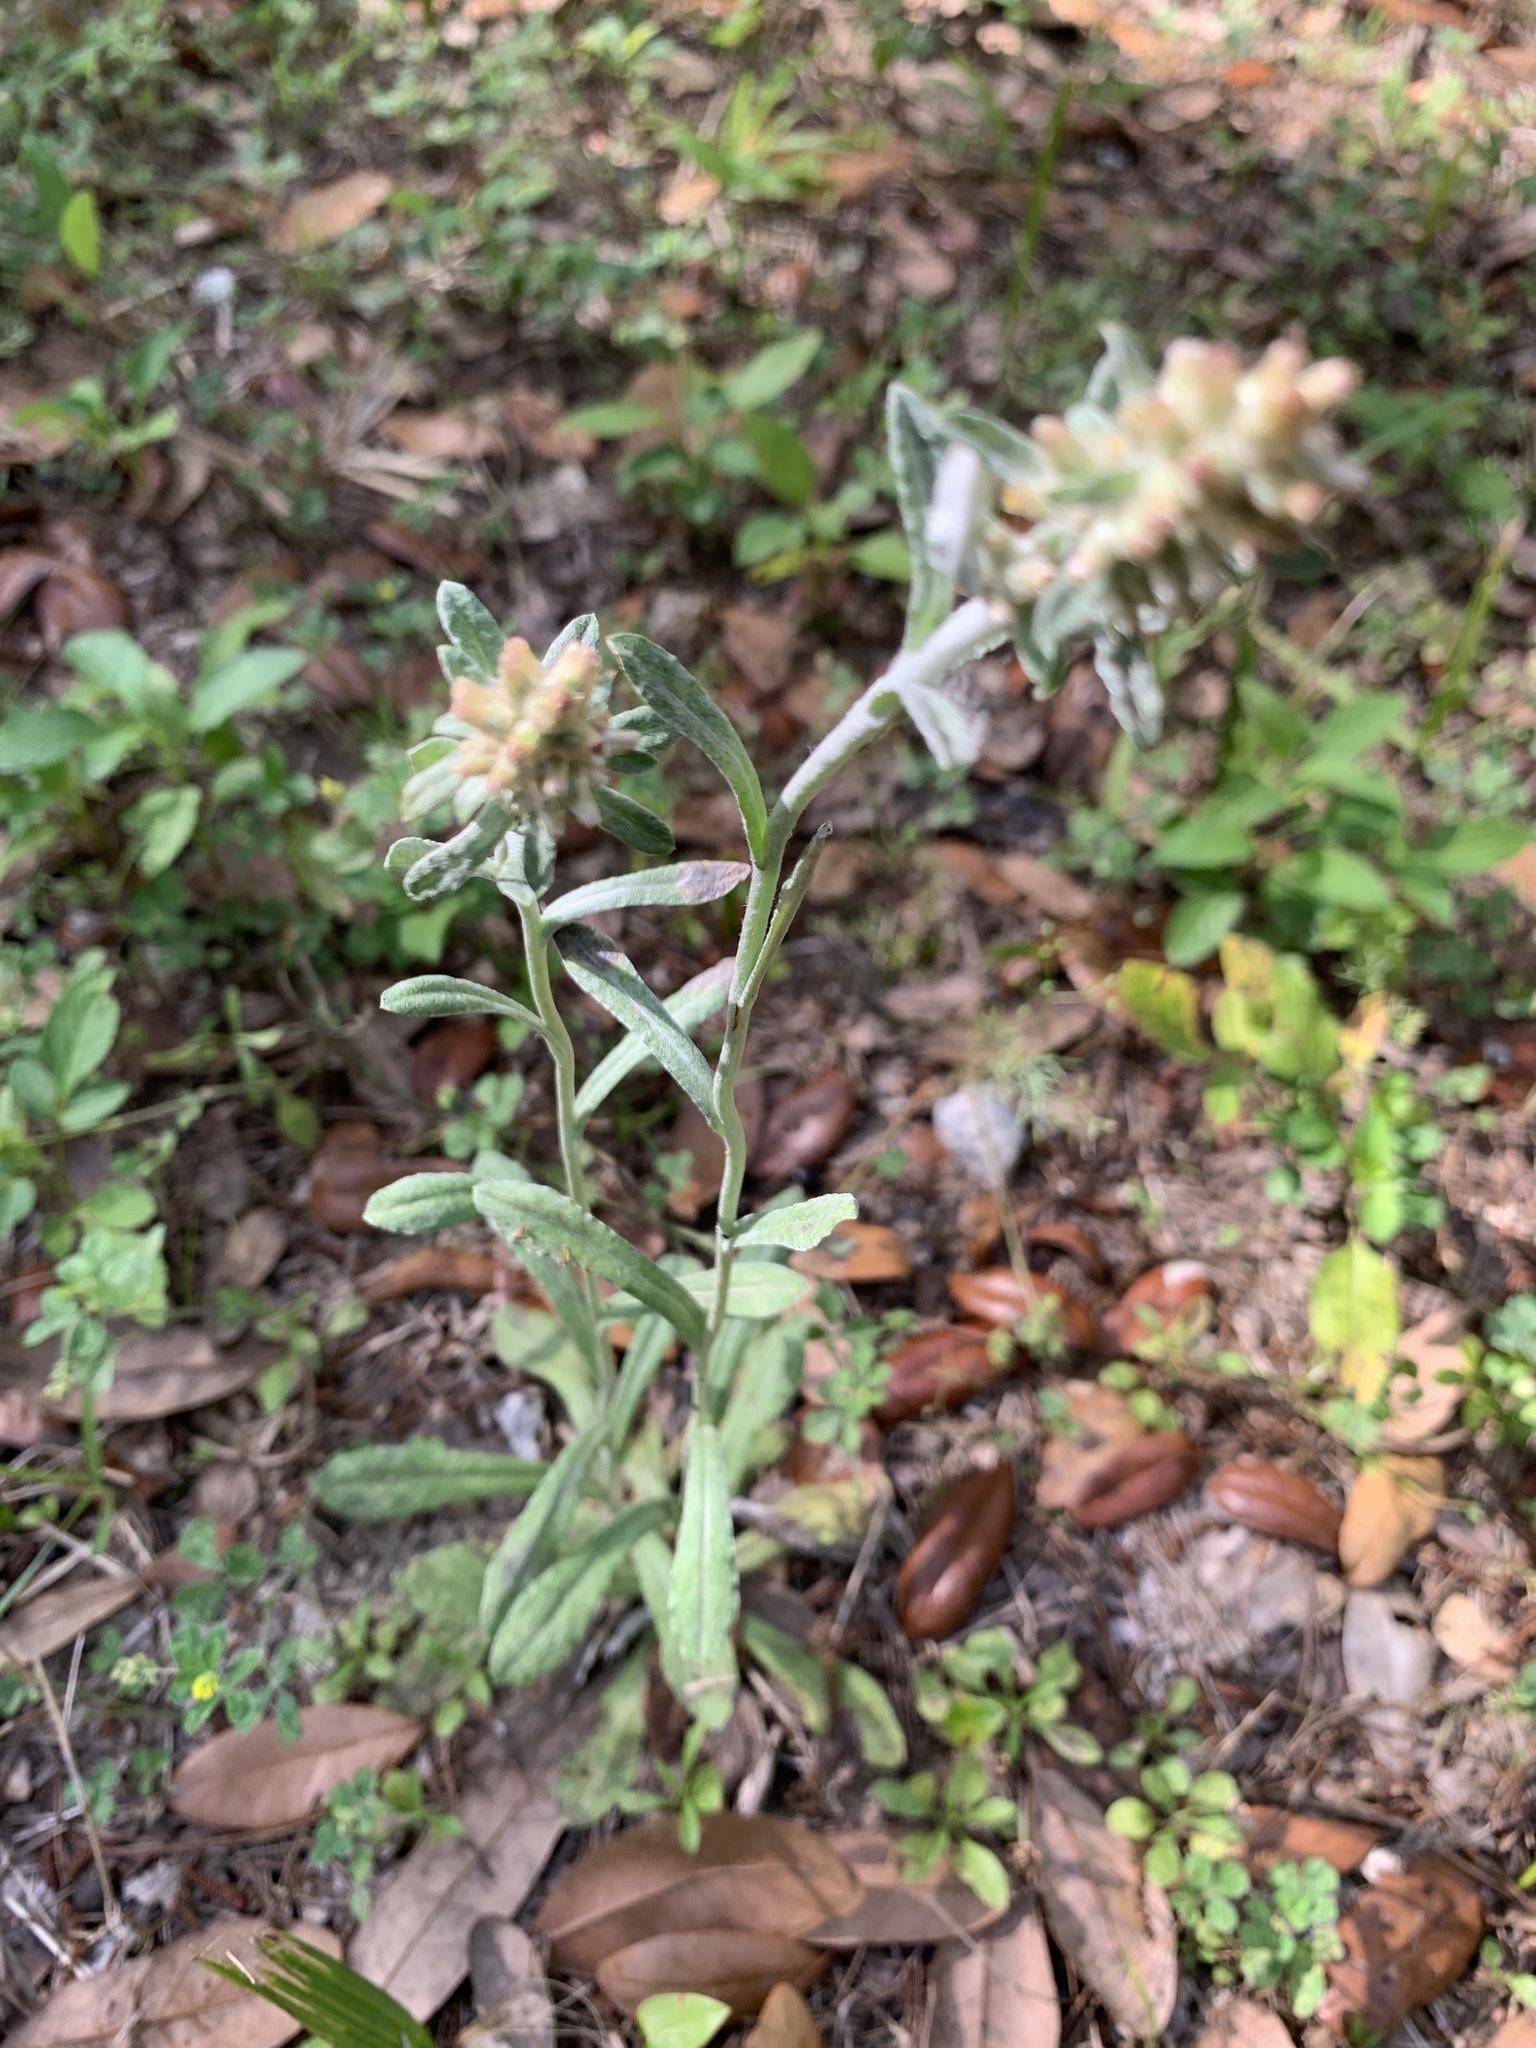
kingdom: Plantae
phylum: Tracheophyta
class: Magnoliopsida
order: Asterales
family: Asteraceae
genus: Pseudognaphalium
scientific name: Pseudognaphalium obtusifolium
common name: Eastern rabbit-tobacco
